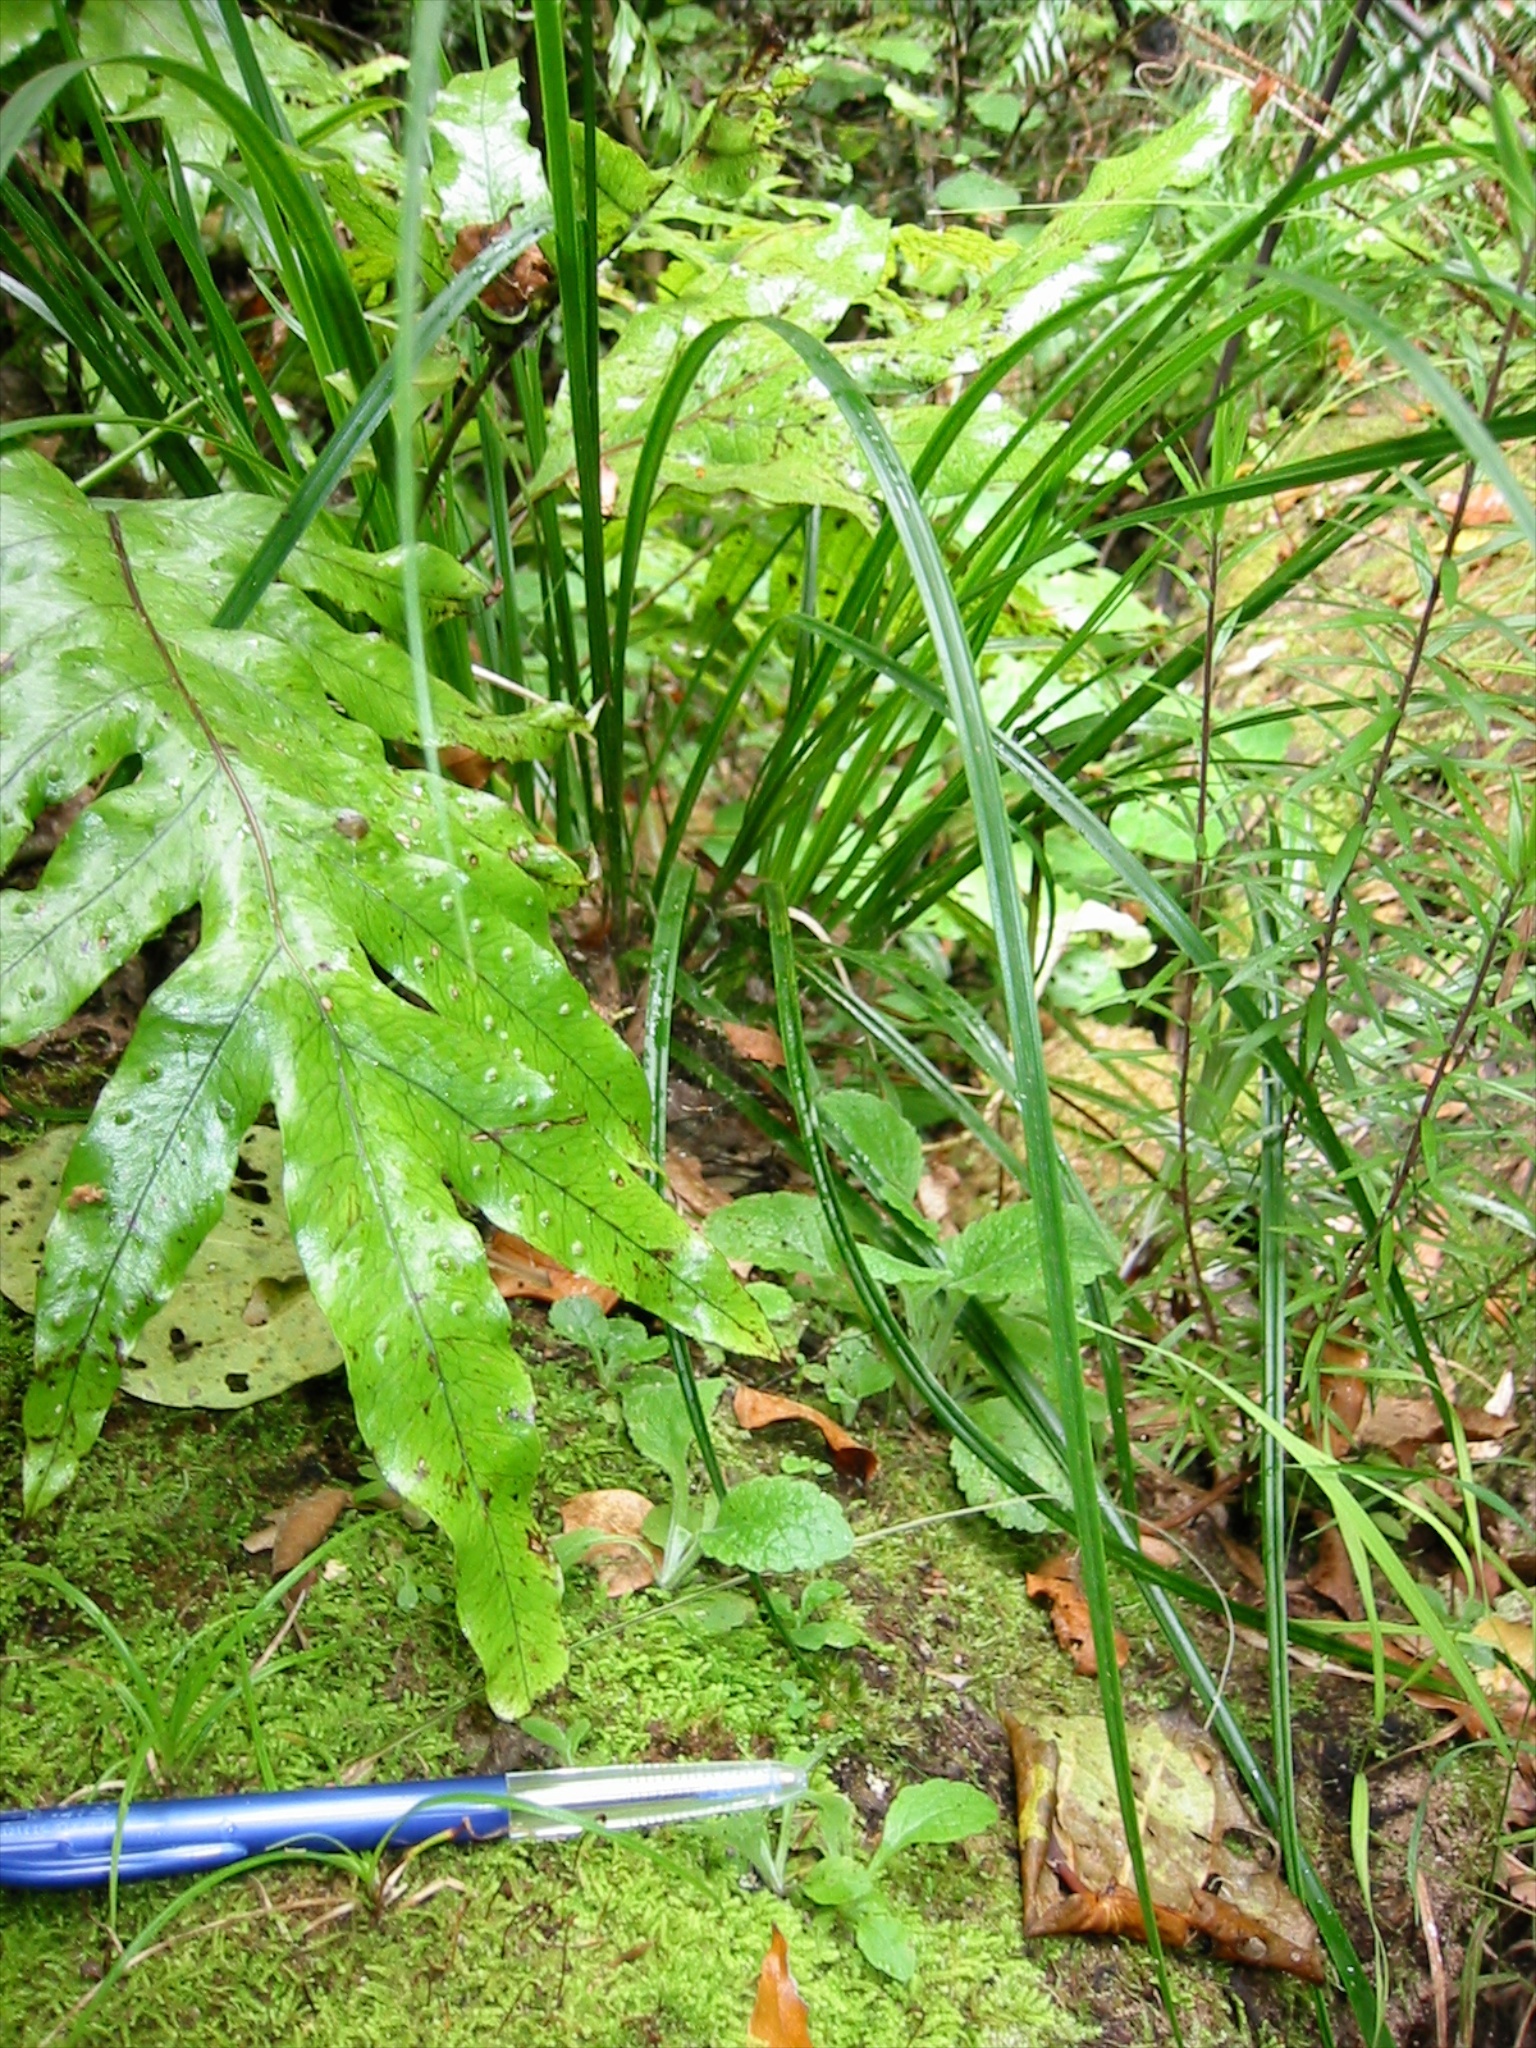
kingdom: Plantae
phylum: Tracheophyta
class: Magnoliopsida
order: Lamiales
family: Plantaginaceae
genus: Digitalis
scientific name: Digitalis purpurea
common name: Foxglove
